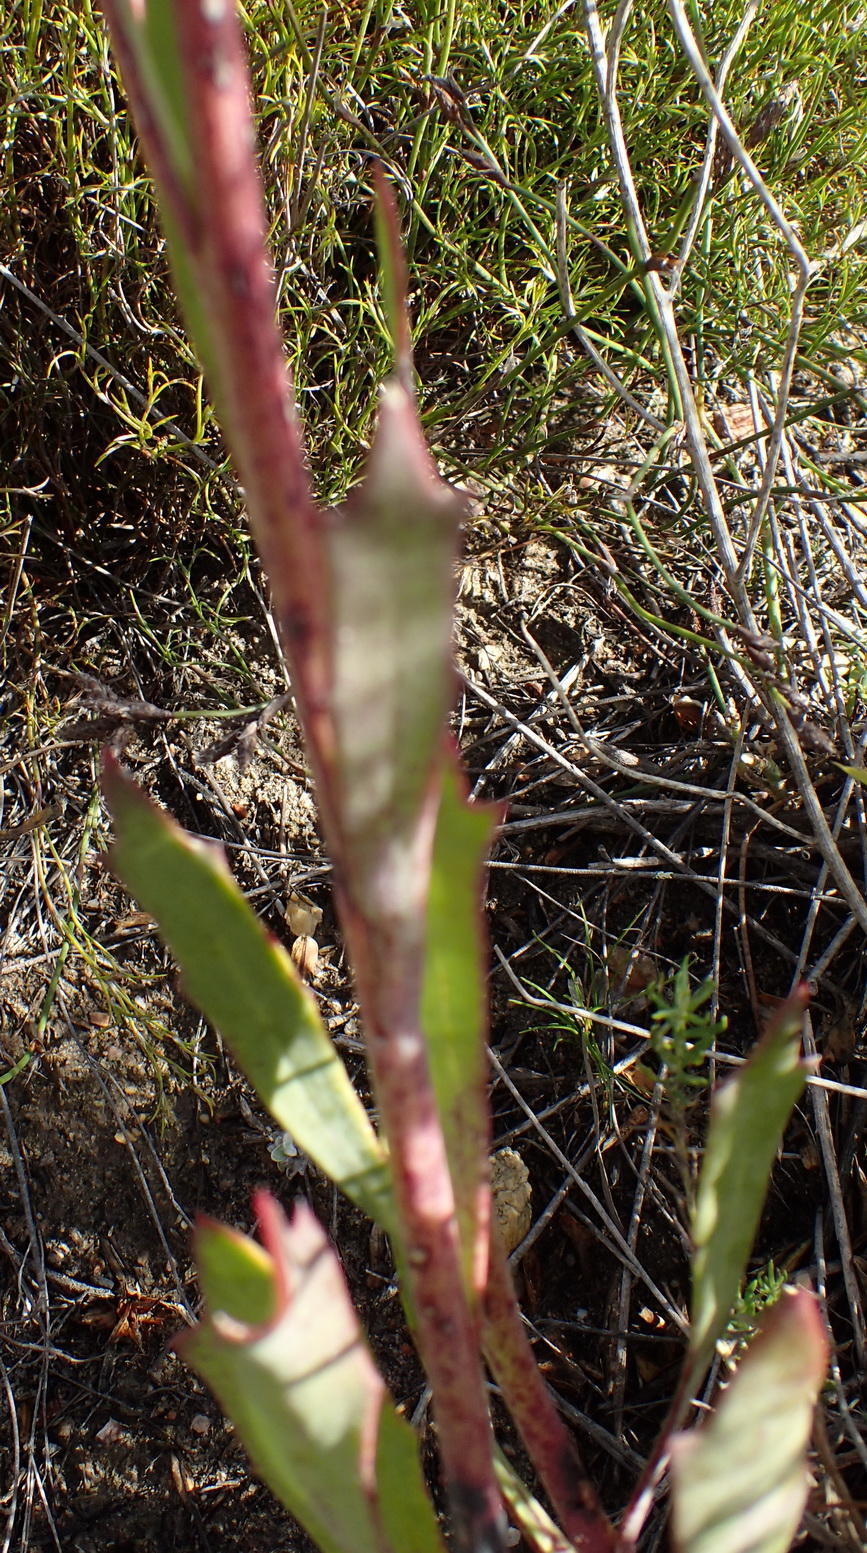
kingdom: Plantae
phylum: Tracheophyta
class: Magnoliopsida
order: Asterales
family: Asteraceae
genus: Othonna
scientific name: Othonna quinquedentata
